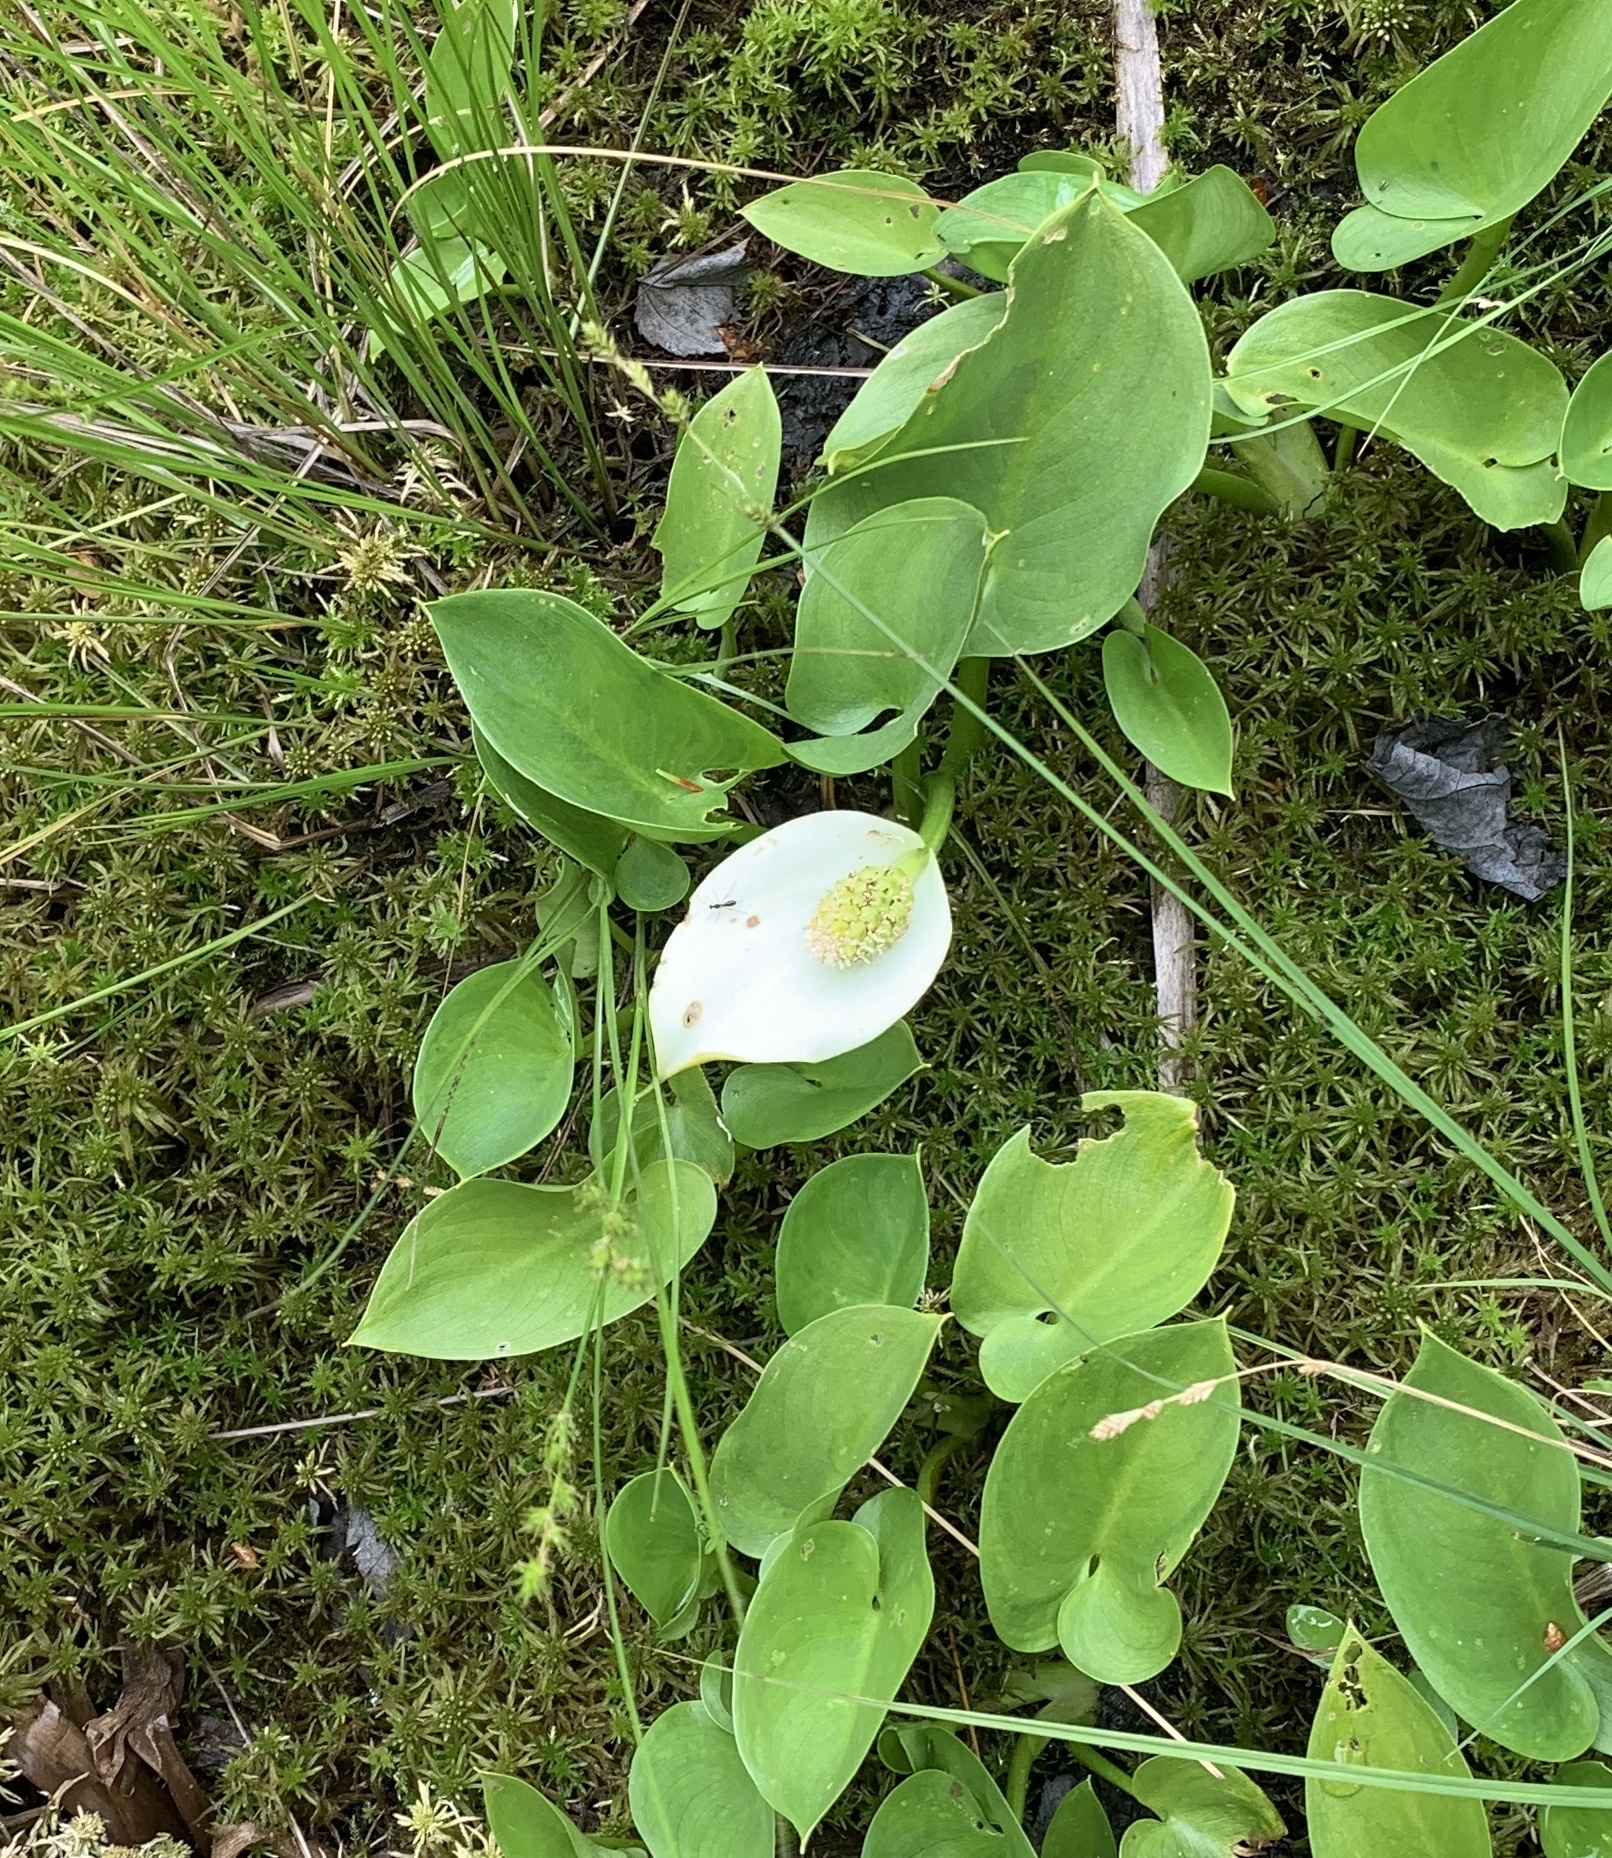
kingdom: Plantae
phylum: Tracheophyta
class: Liliopsida
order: Alismatales
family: Araceae
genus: Calla
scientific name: Calla palustris
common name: Bog arum
